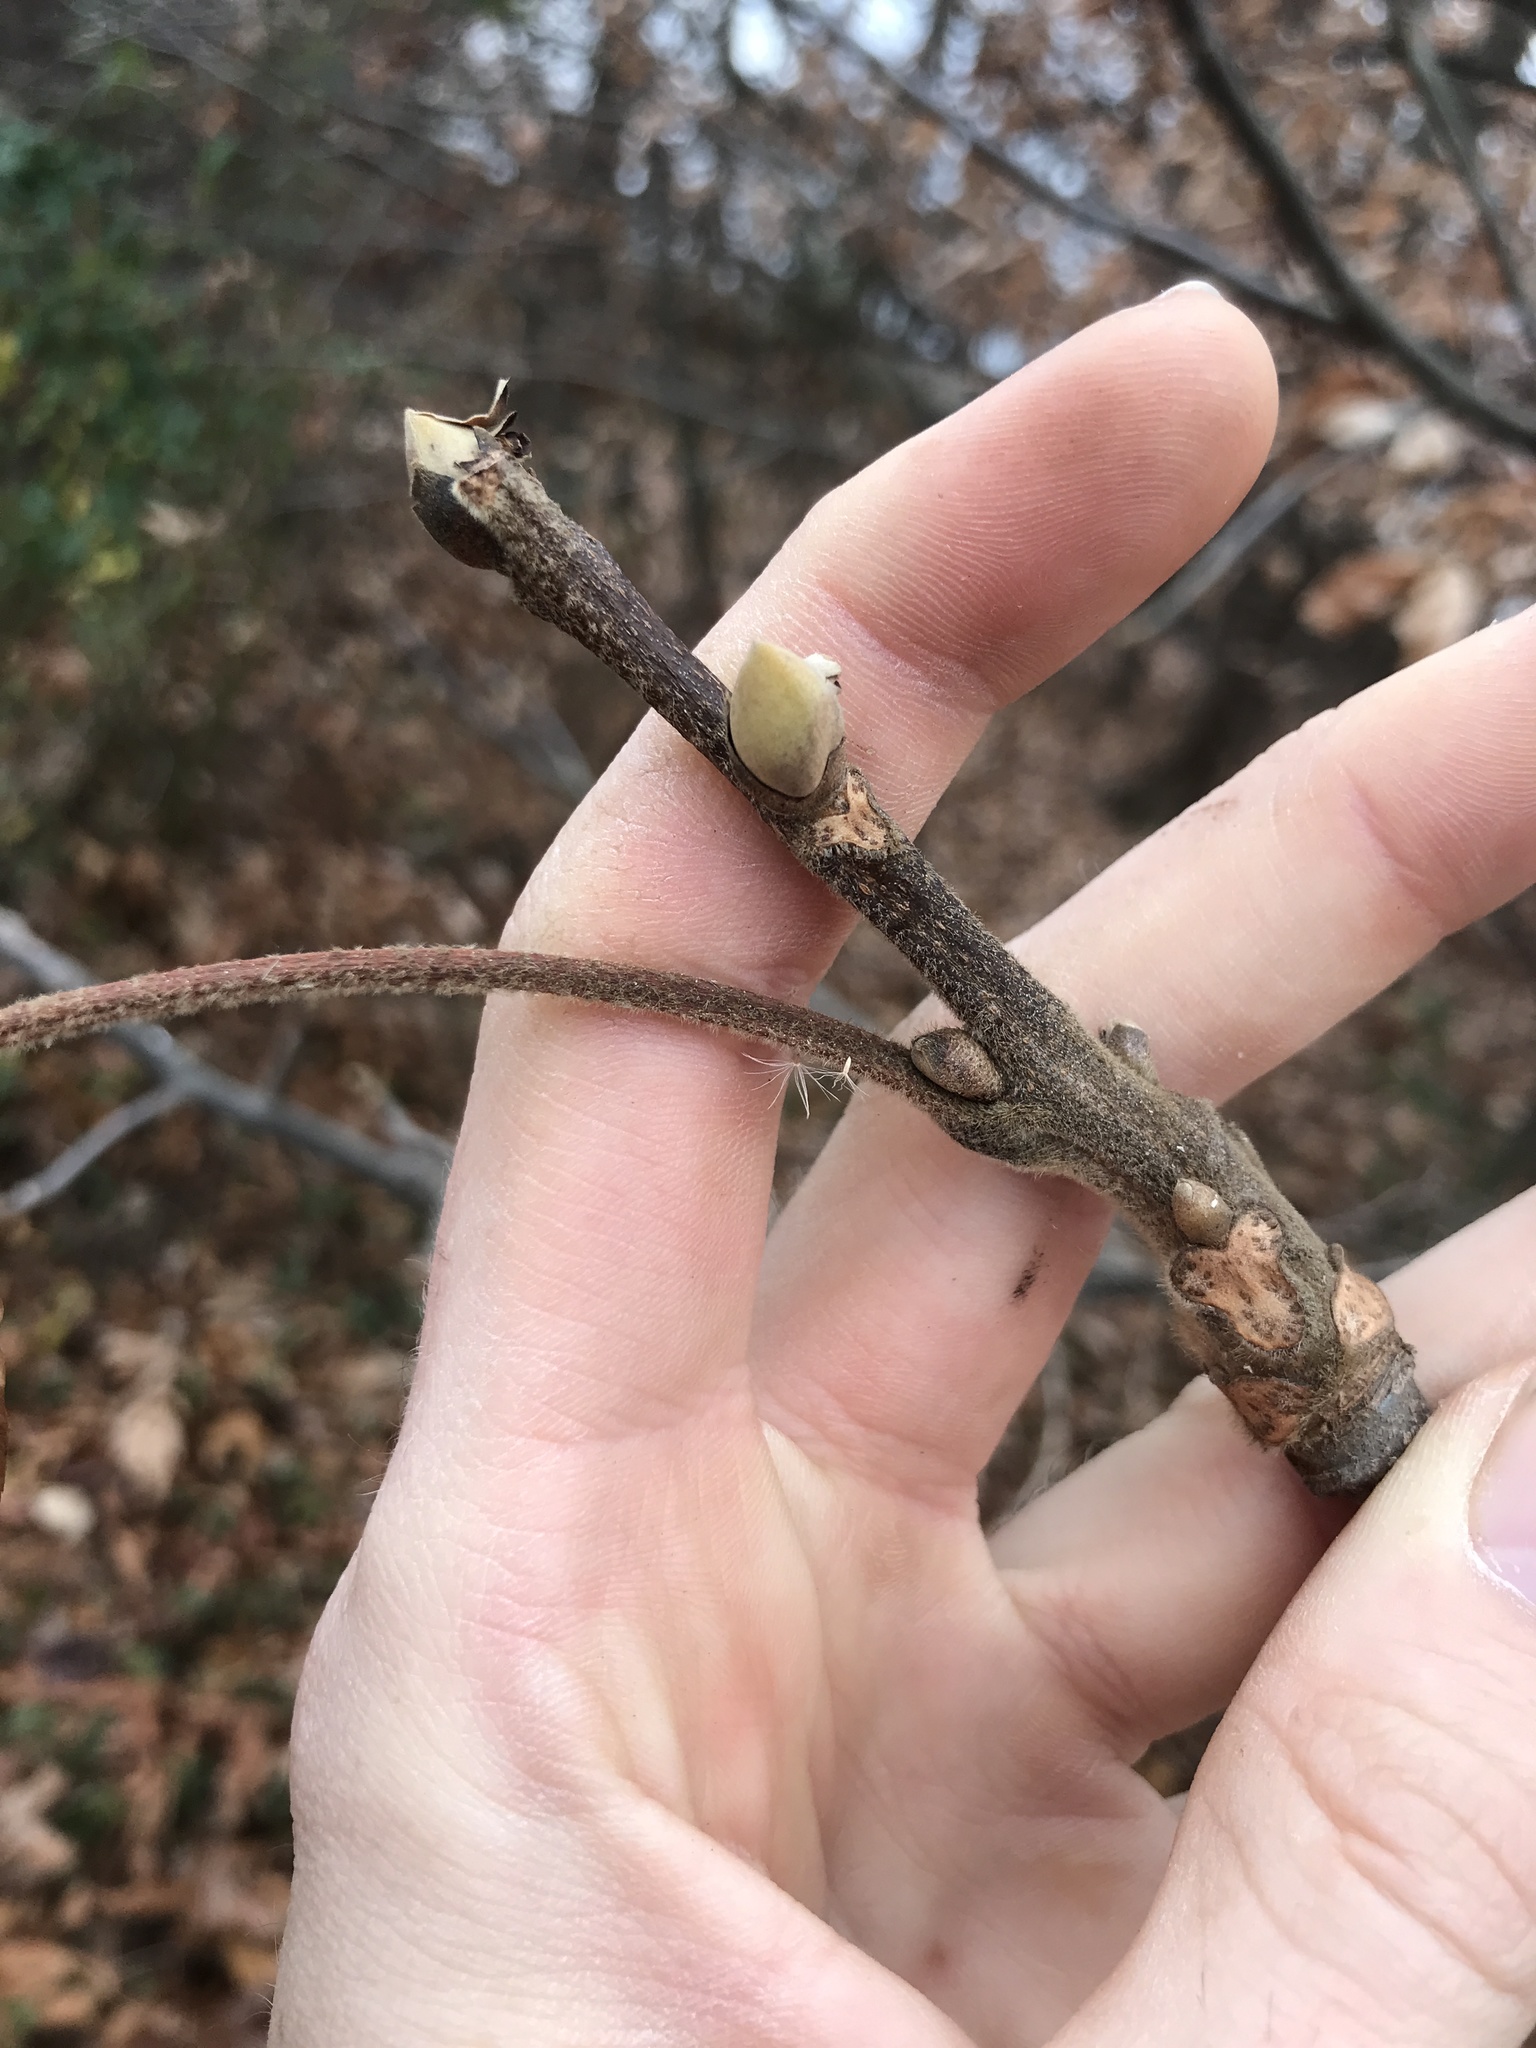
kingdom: Plantae
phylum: Tracheophyta
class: Magnoliopsida
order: Fagales
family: Juglandaceae
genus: Carya
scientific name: Carya alba
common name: Mockernut hickory
